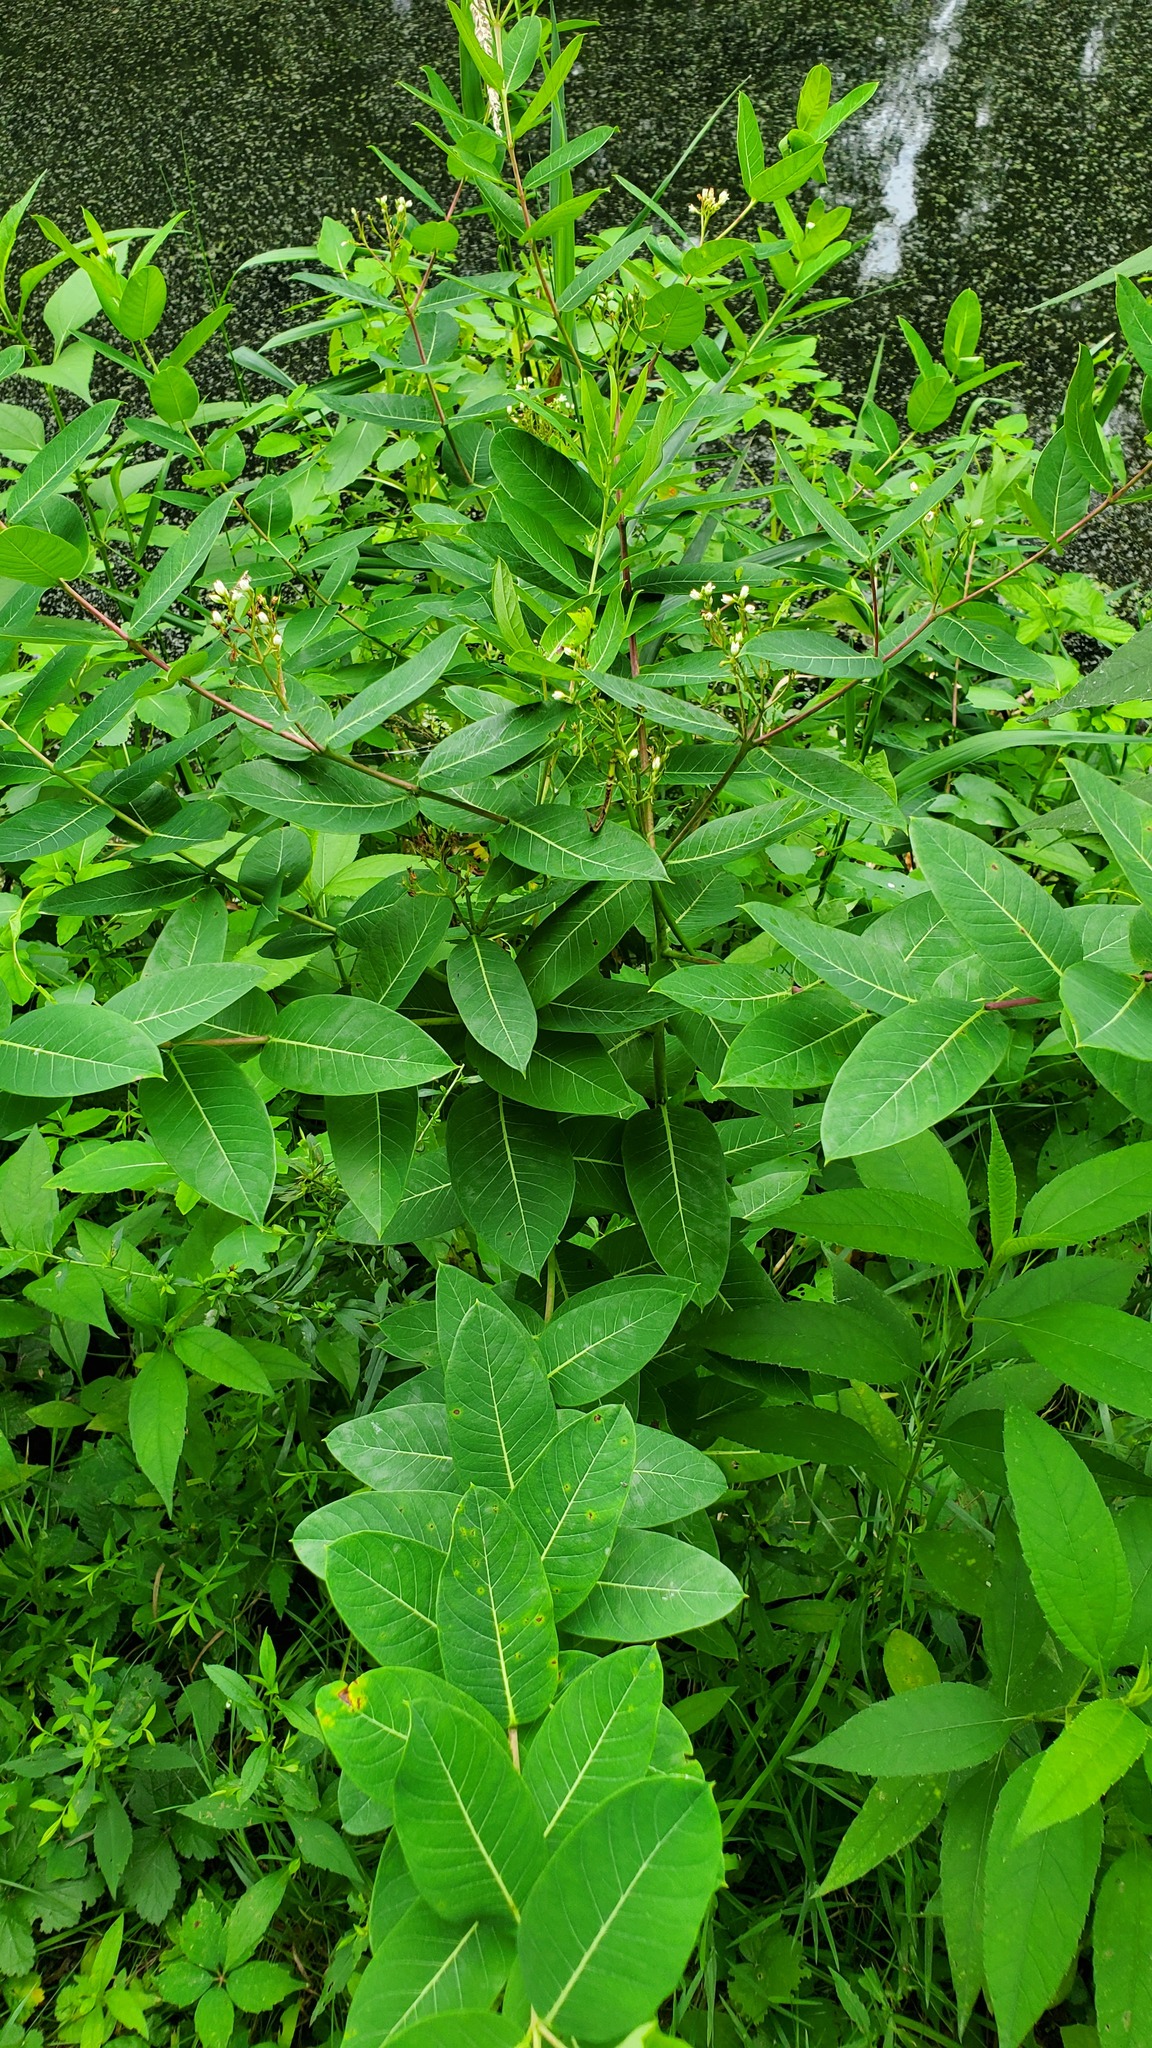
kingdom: Plantae
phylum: Tracheophyta
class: Magnoliopsida
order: Gentianales
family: Apocynaceae
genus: Apocynum
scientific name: Apocynum cannabinum
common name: Hemp dogbane
